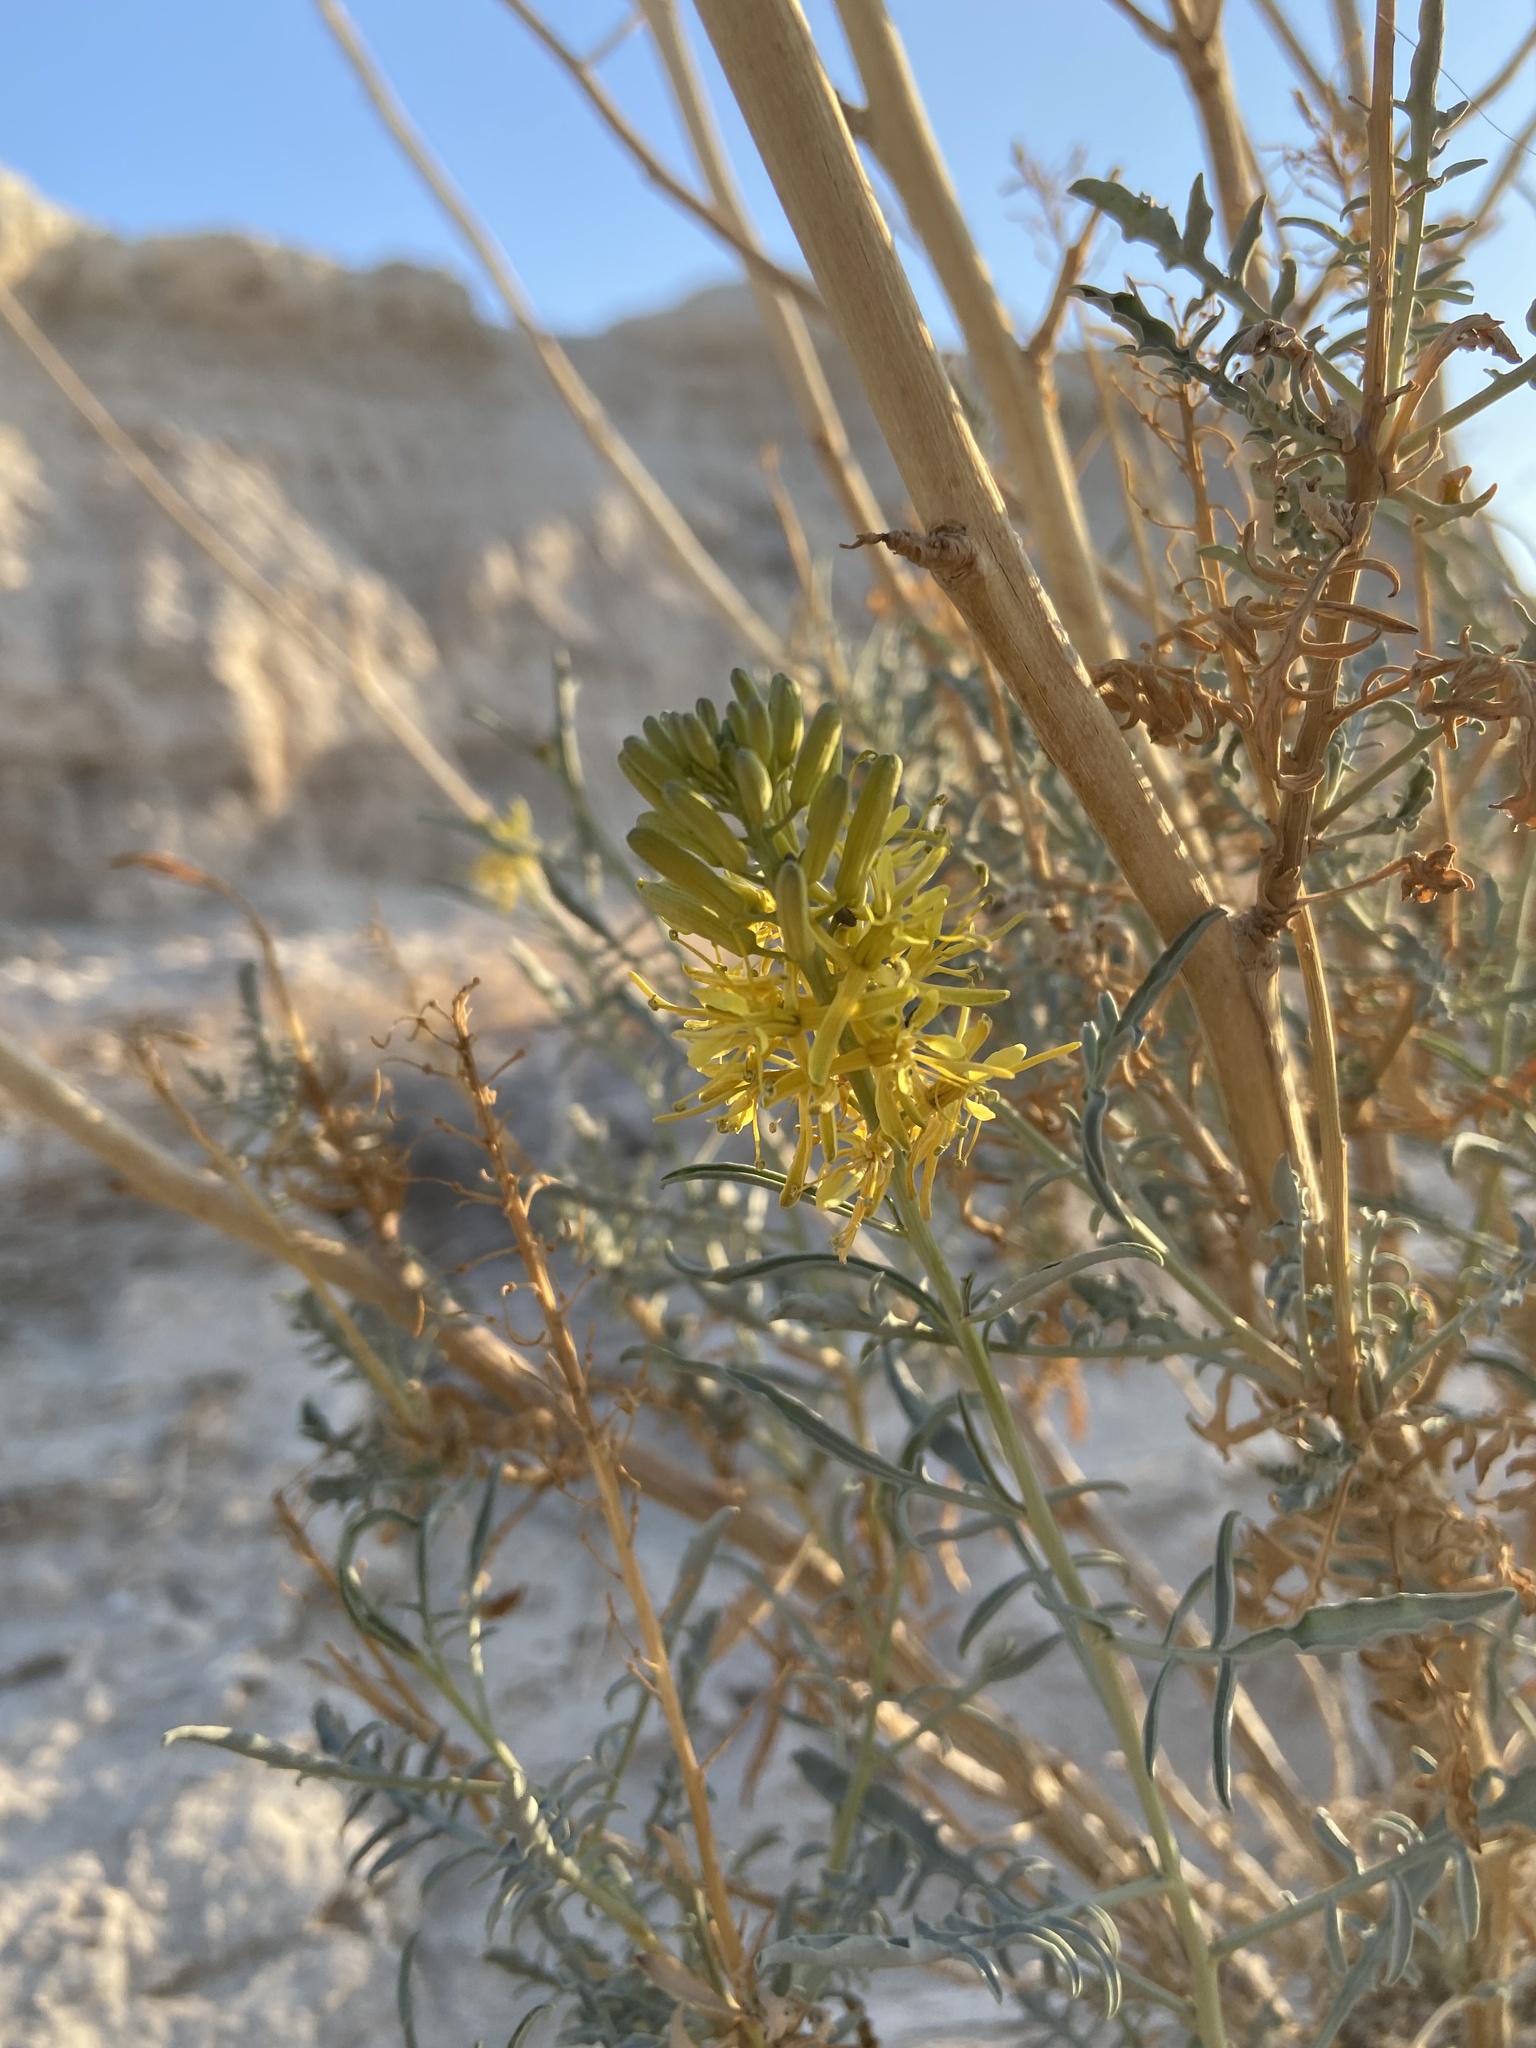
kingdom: Plantae
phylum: Tracheophyta
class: Magnoliopsida
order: Brassicales
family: Brassicaceae
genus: Stanleya
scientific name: Stanleya pinnata
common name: Prince's-plume
